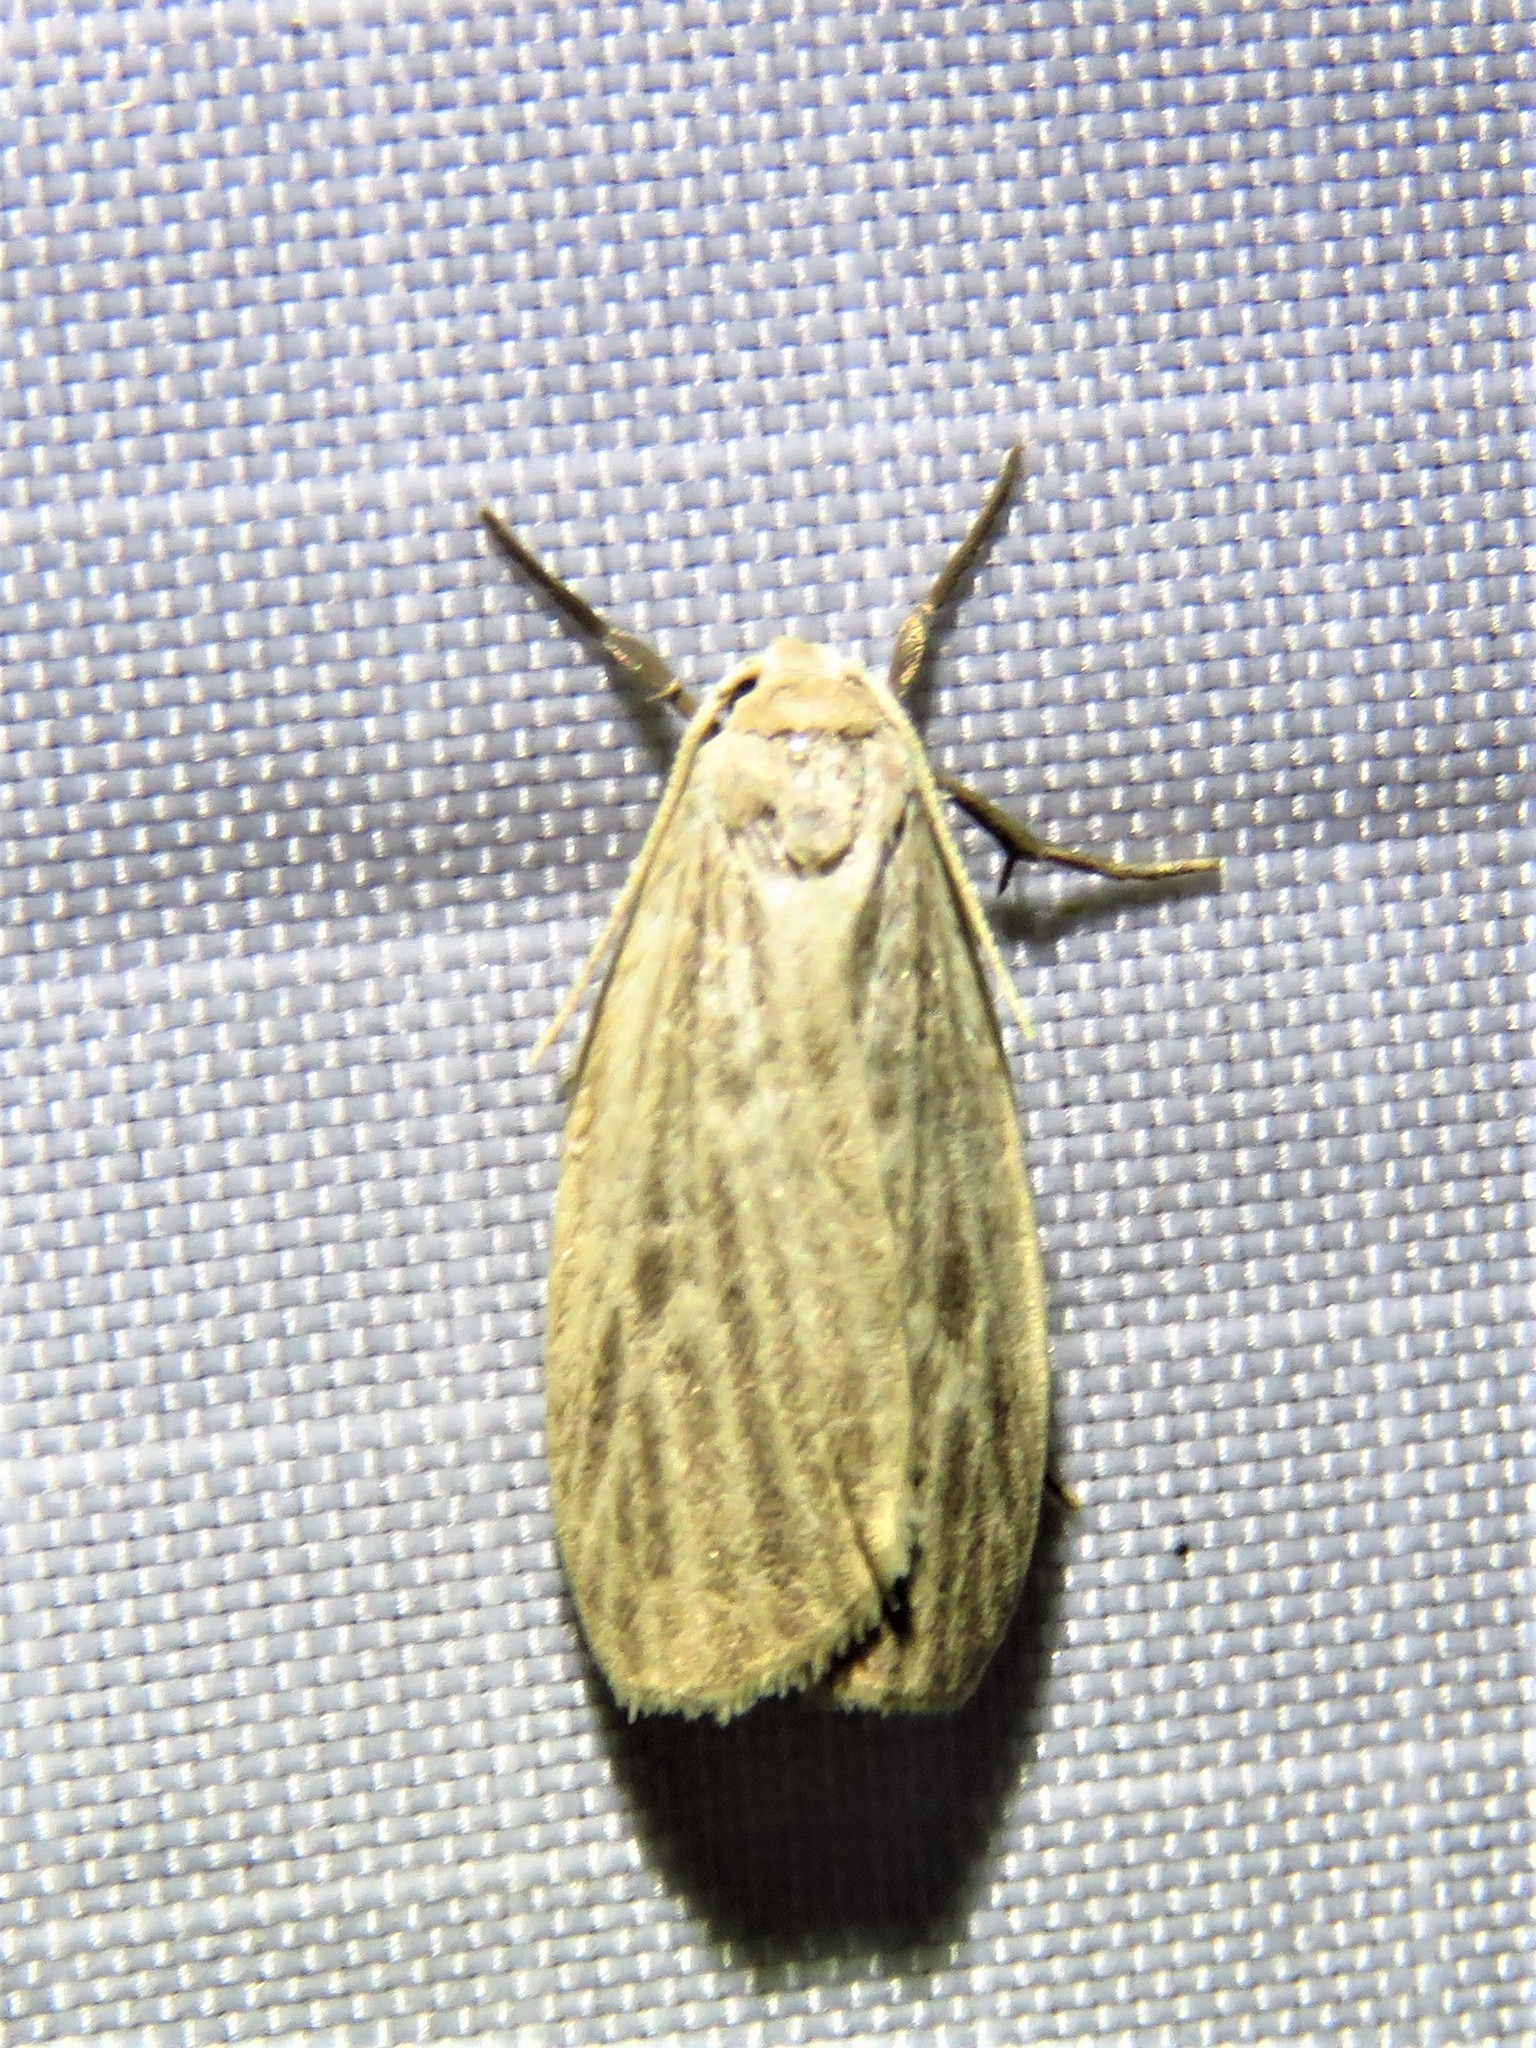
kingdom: Animalia
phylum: Arthropoda
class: Insecta
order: Lepidoptera
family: Erebidae
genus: Crambidia
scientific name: Crambidia pallida
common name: Pale lichen moth
